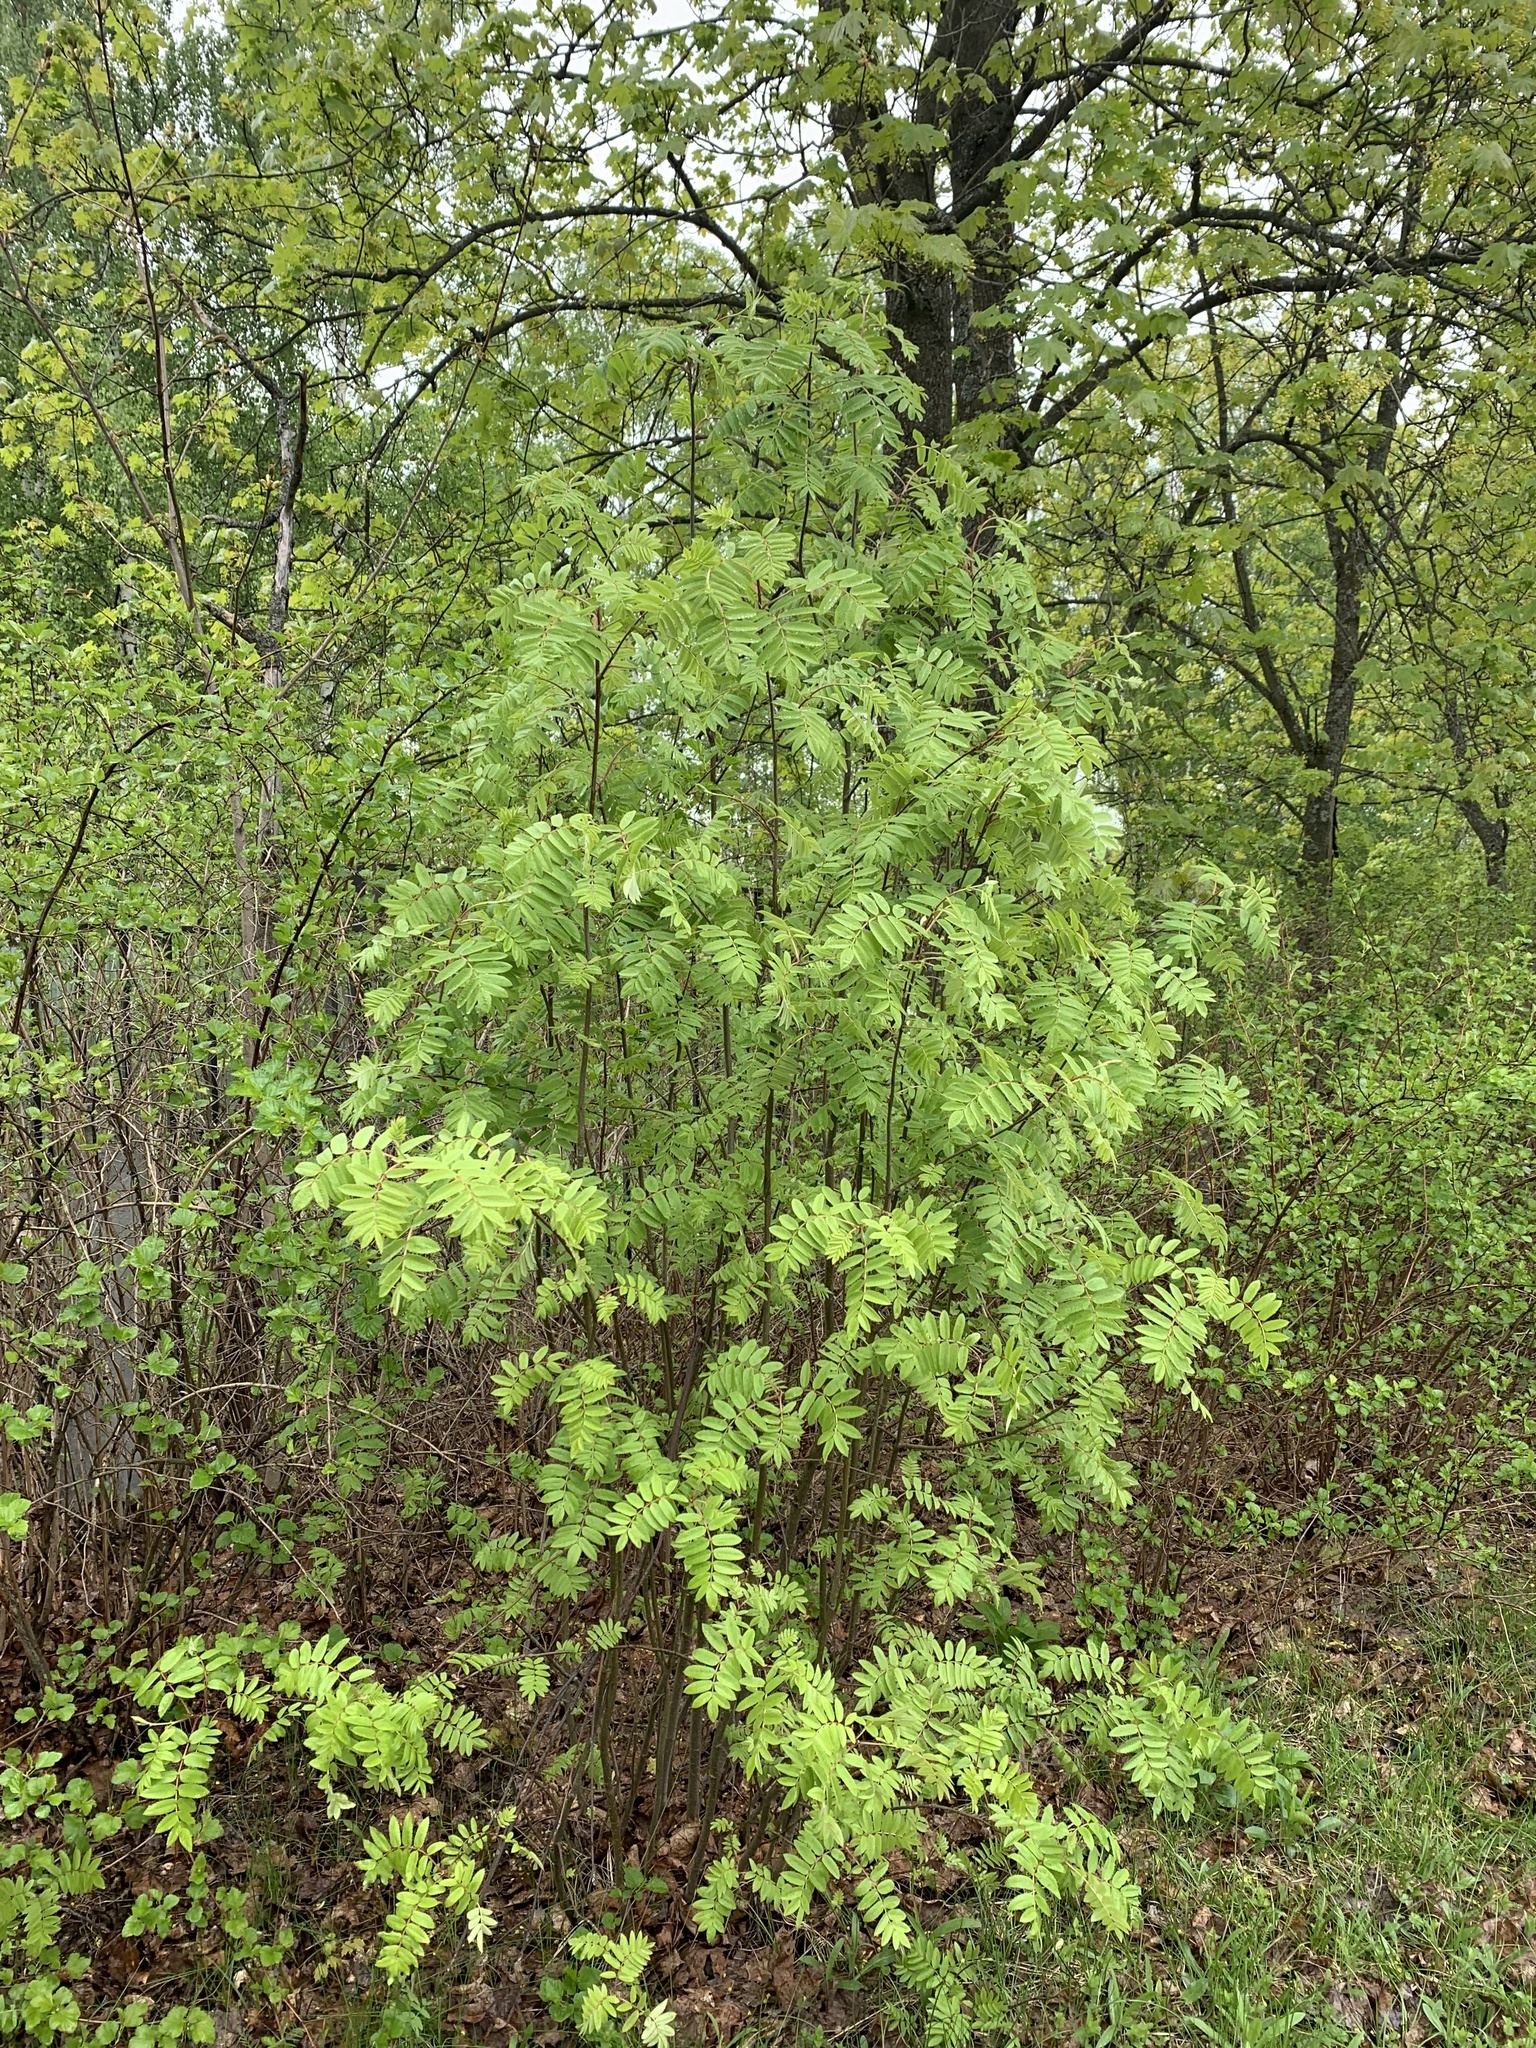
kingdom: Plantae
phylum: Tracheophyta
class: Magnoliopsida
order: Rosales
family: Rosaceae
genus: Sorbus
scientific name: Sorbus aucuparia
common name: Rowan
